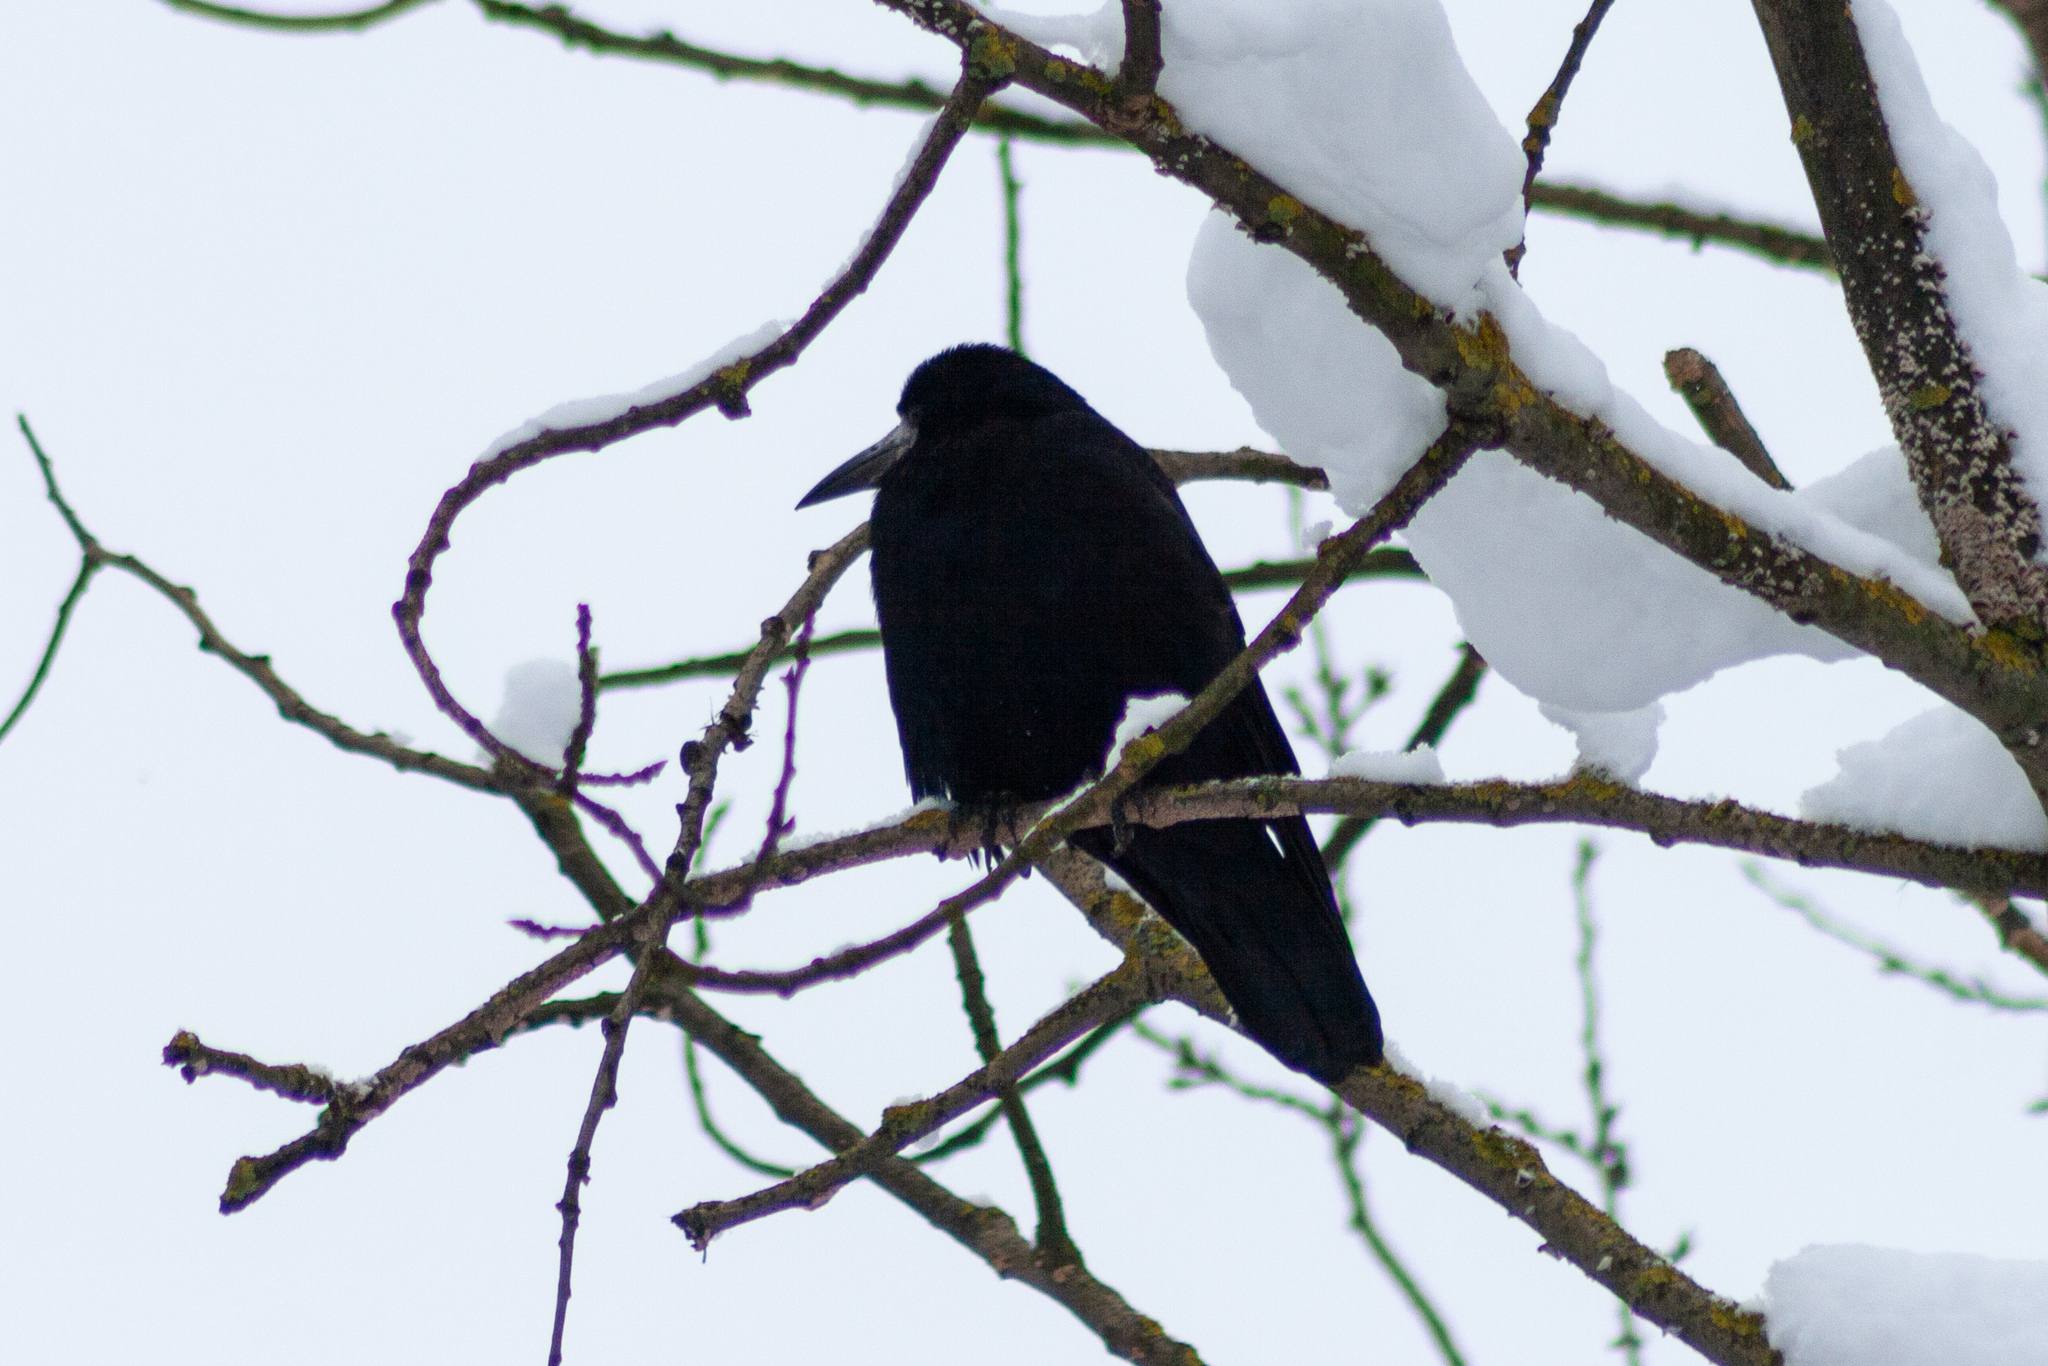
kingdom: Animalia
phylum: Chordata
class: Aves
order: Passeriformes
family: Corvidae
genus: Corvus
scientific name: Corvus frugilegus
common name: Rook
